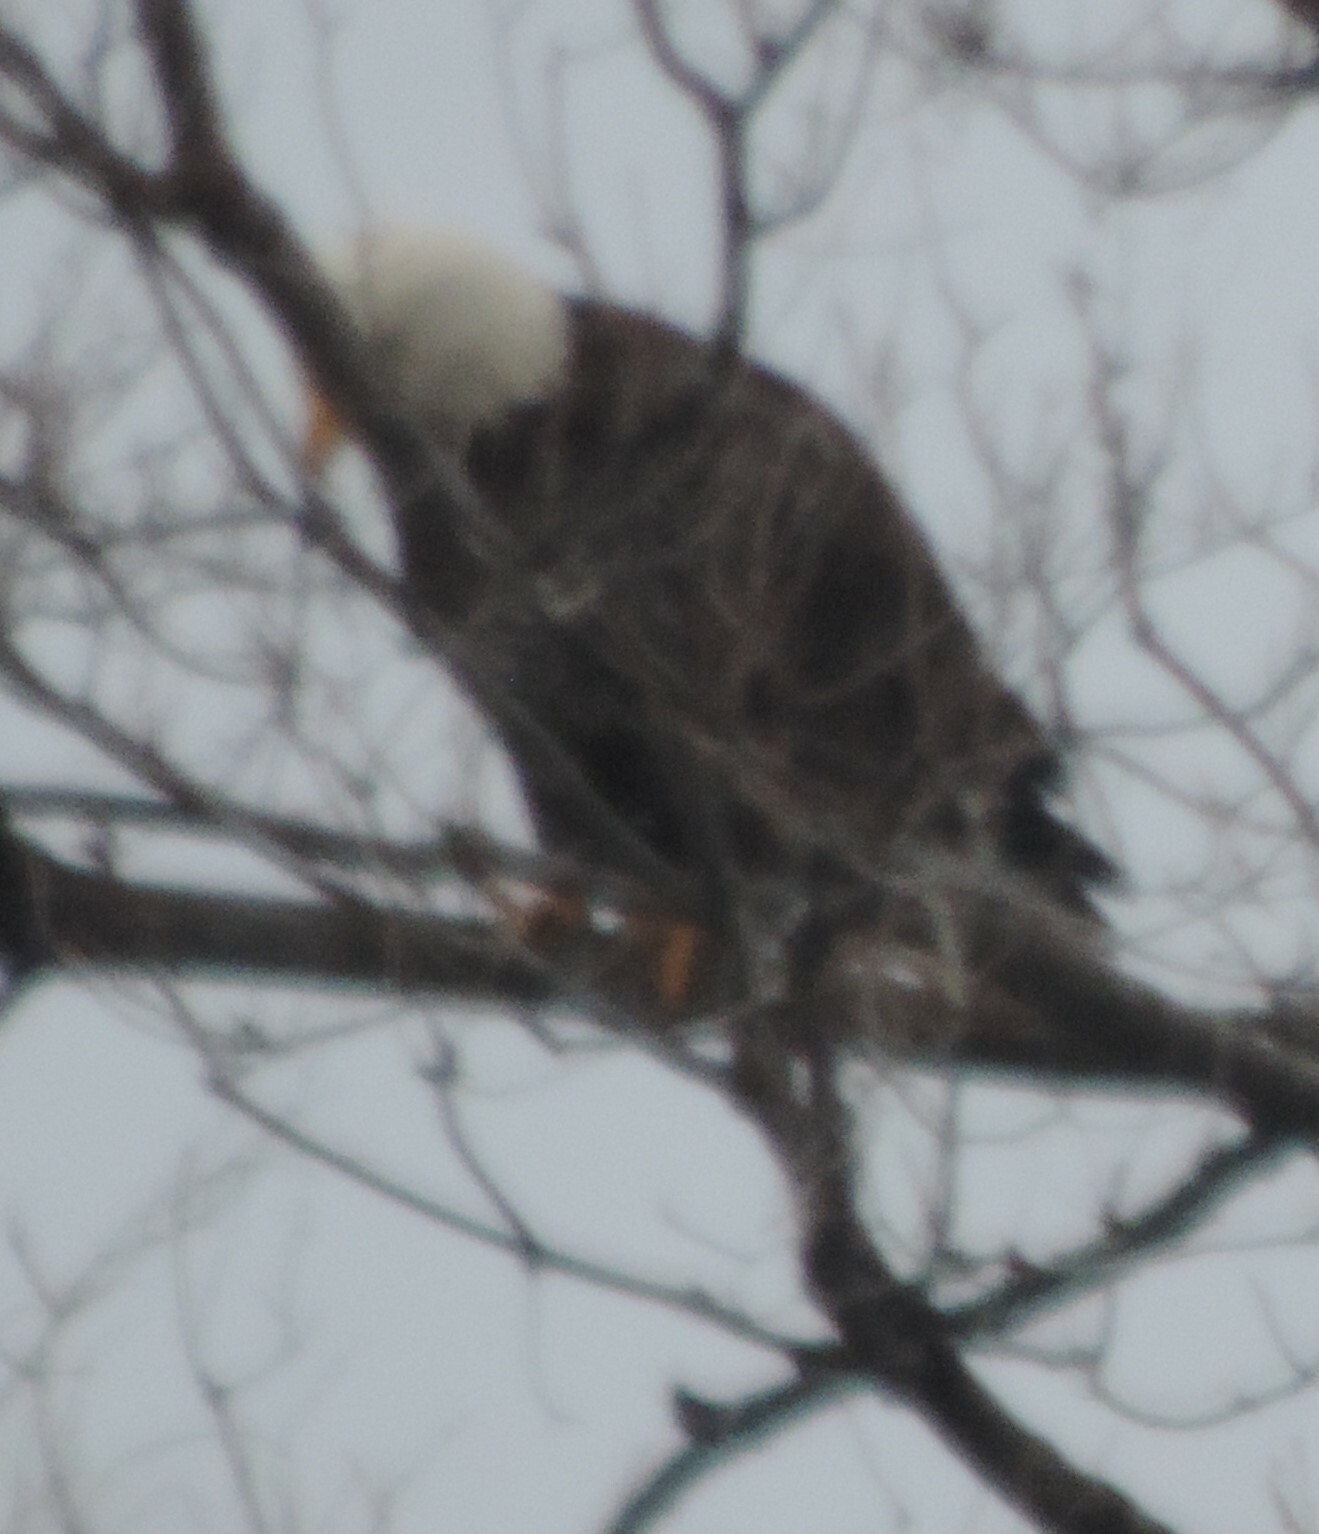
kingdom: Animalia
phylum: Chordata
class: Aves
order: Accipitriformes
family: Accipitridae
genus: Haliaeetus
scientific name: Haliaeetus leucocephalus
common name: Bald eagle
